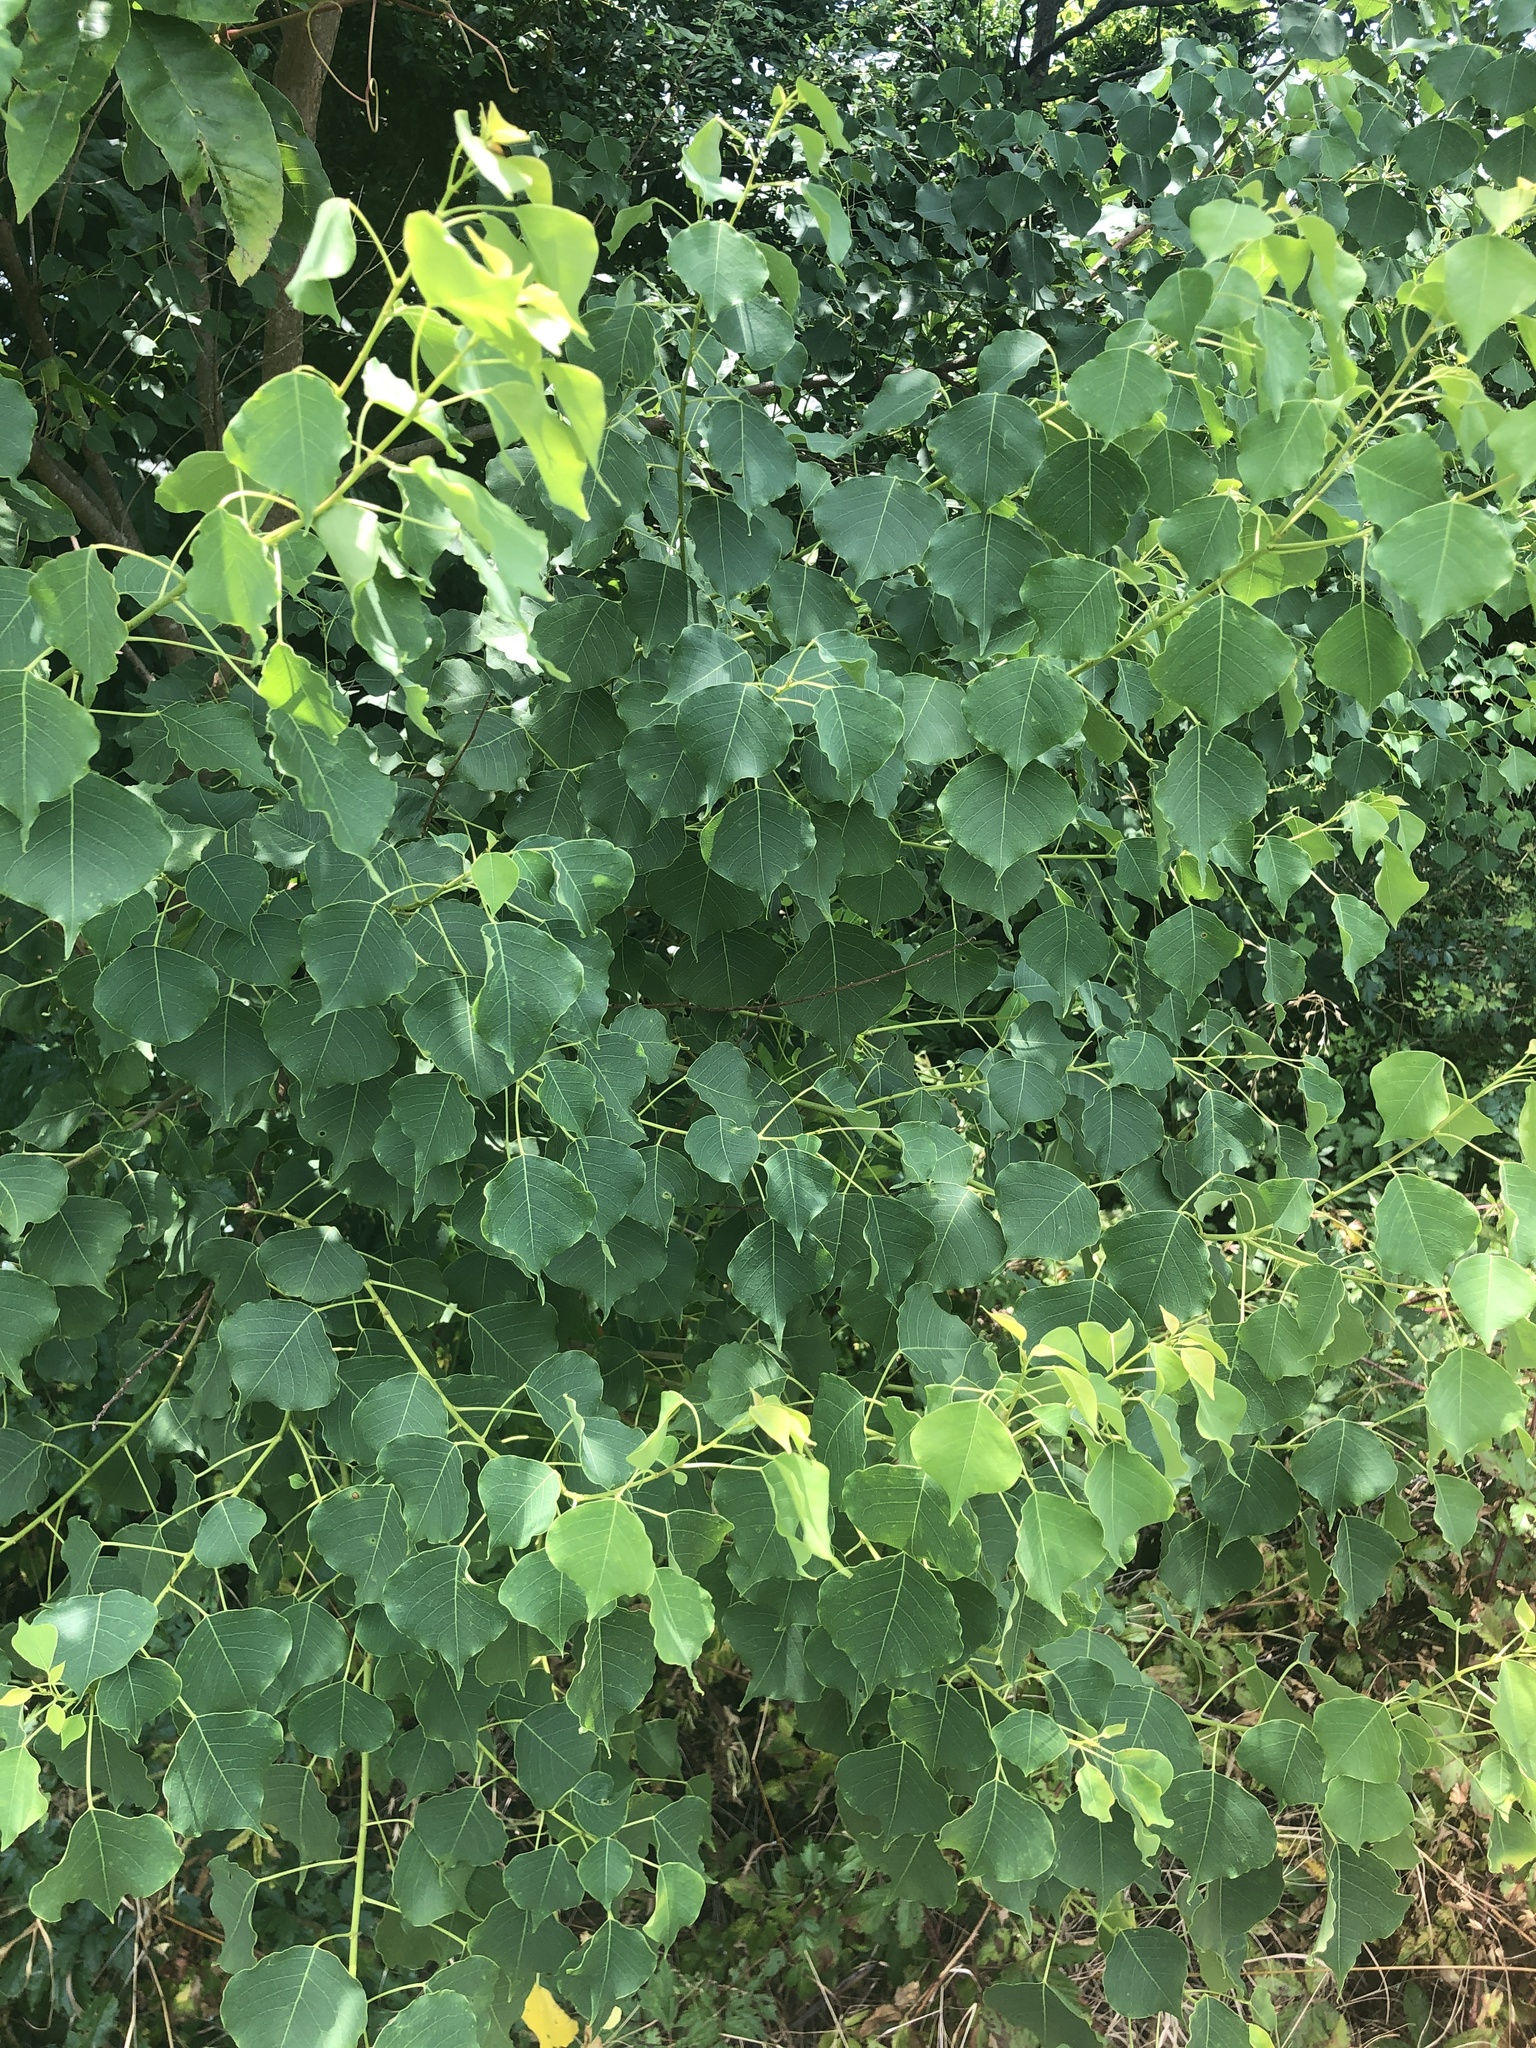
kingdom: Plantae
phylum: Tracheophyta
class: Magnoliopsida
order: Malpighiales
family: Euphorbiaceae
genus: Triadica
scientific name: Triadica sebifera
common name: Chinese tallow
